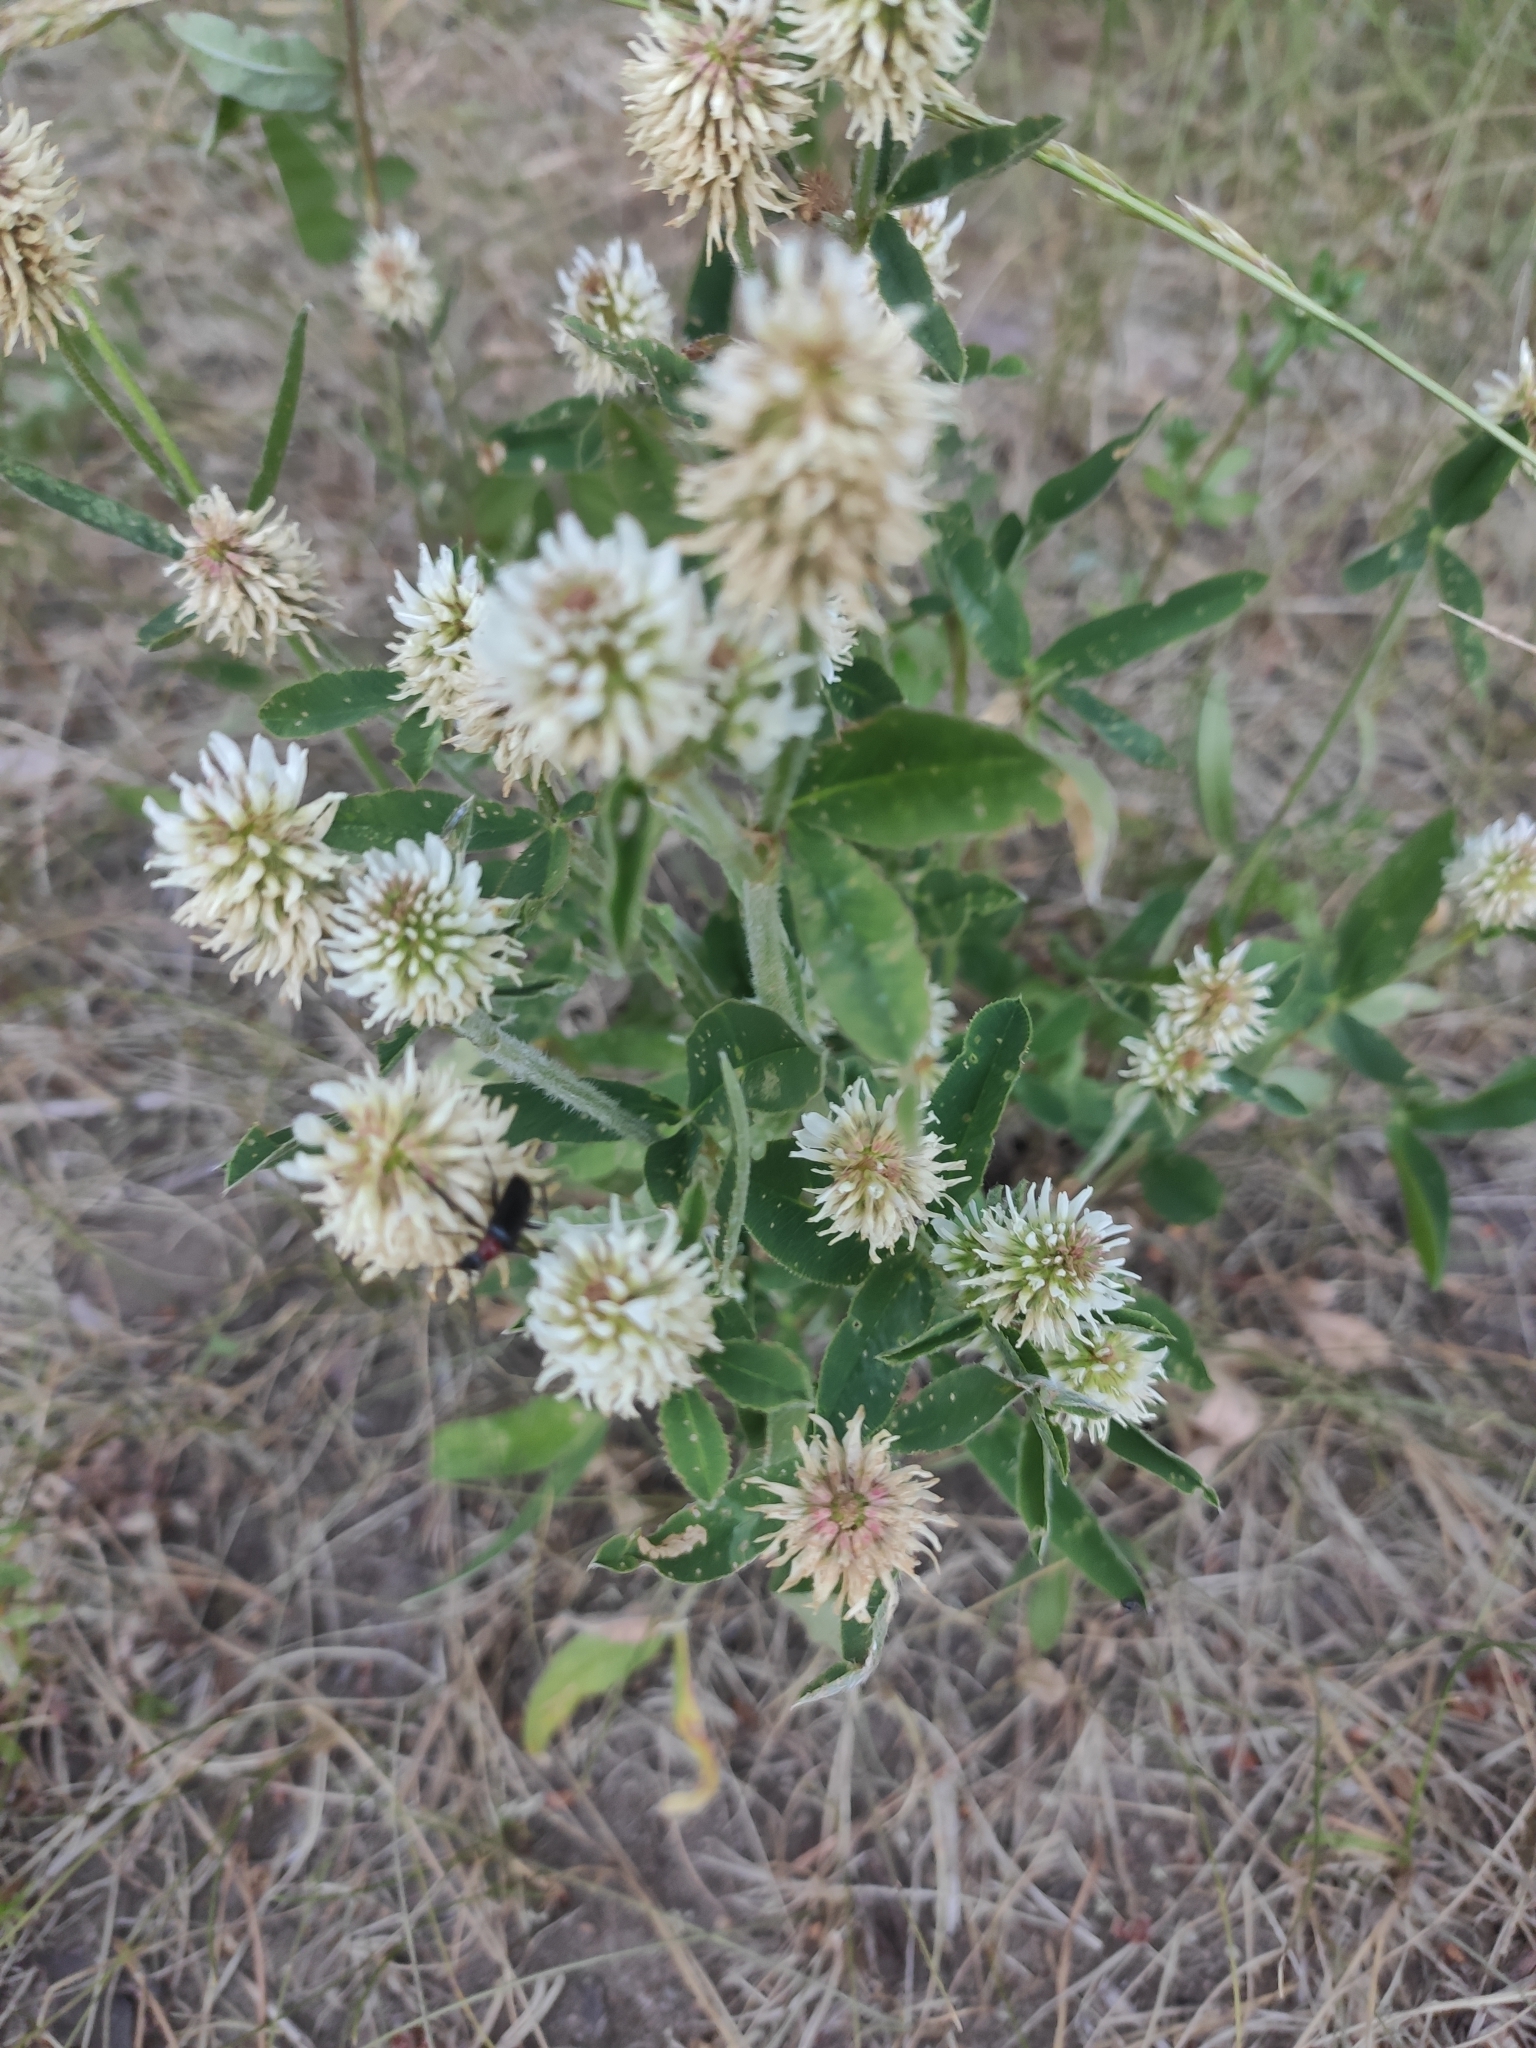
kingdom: Plantae
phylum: Tracheophyta
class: Magnoliopsida
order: Fabales
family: Fabaceae
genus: Trifolium
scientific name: Trifolium montanum
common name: Mountain clover
